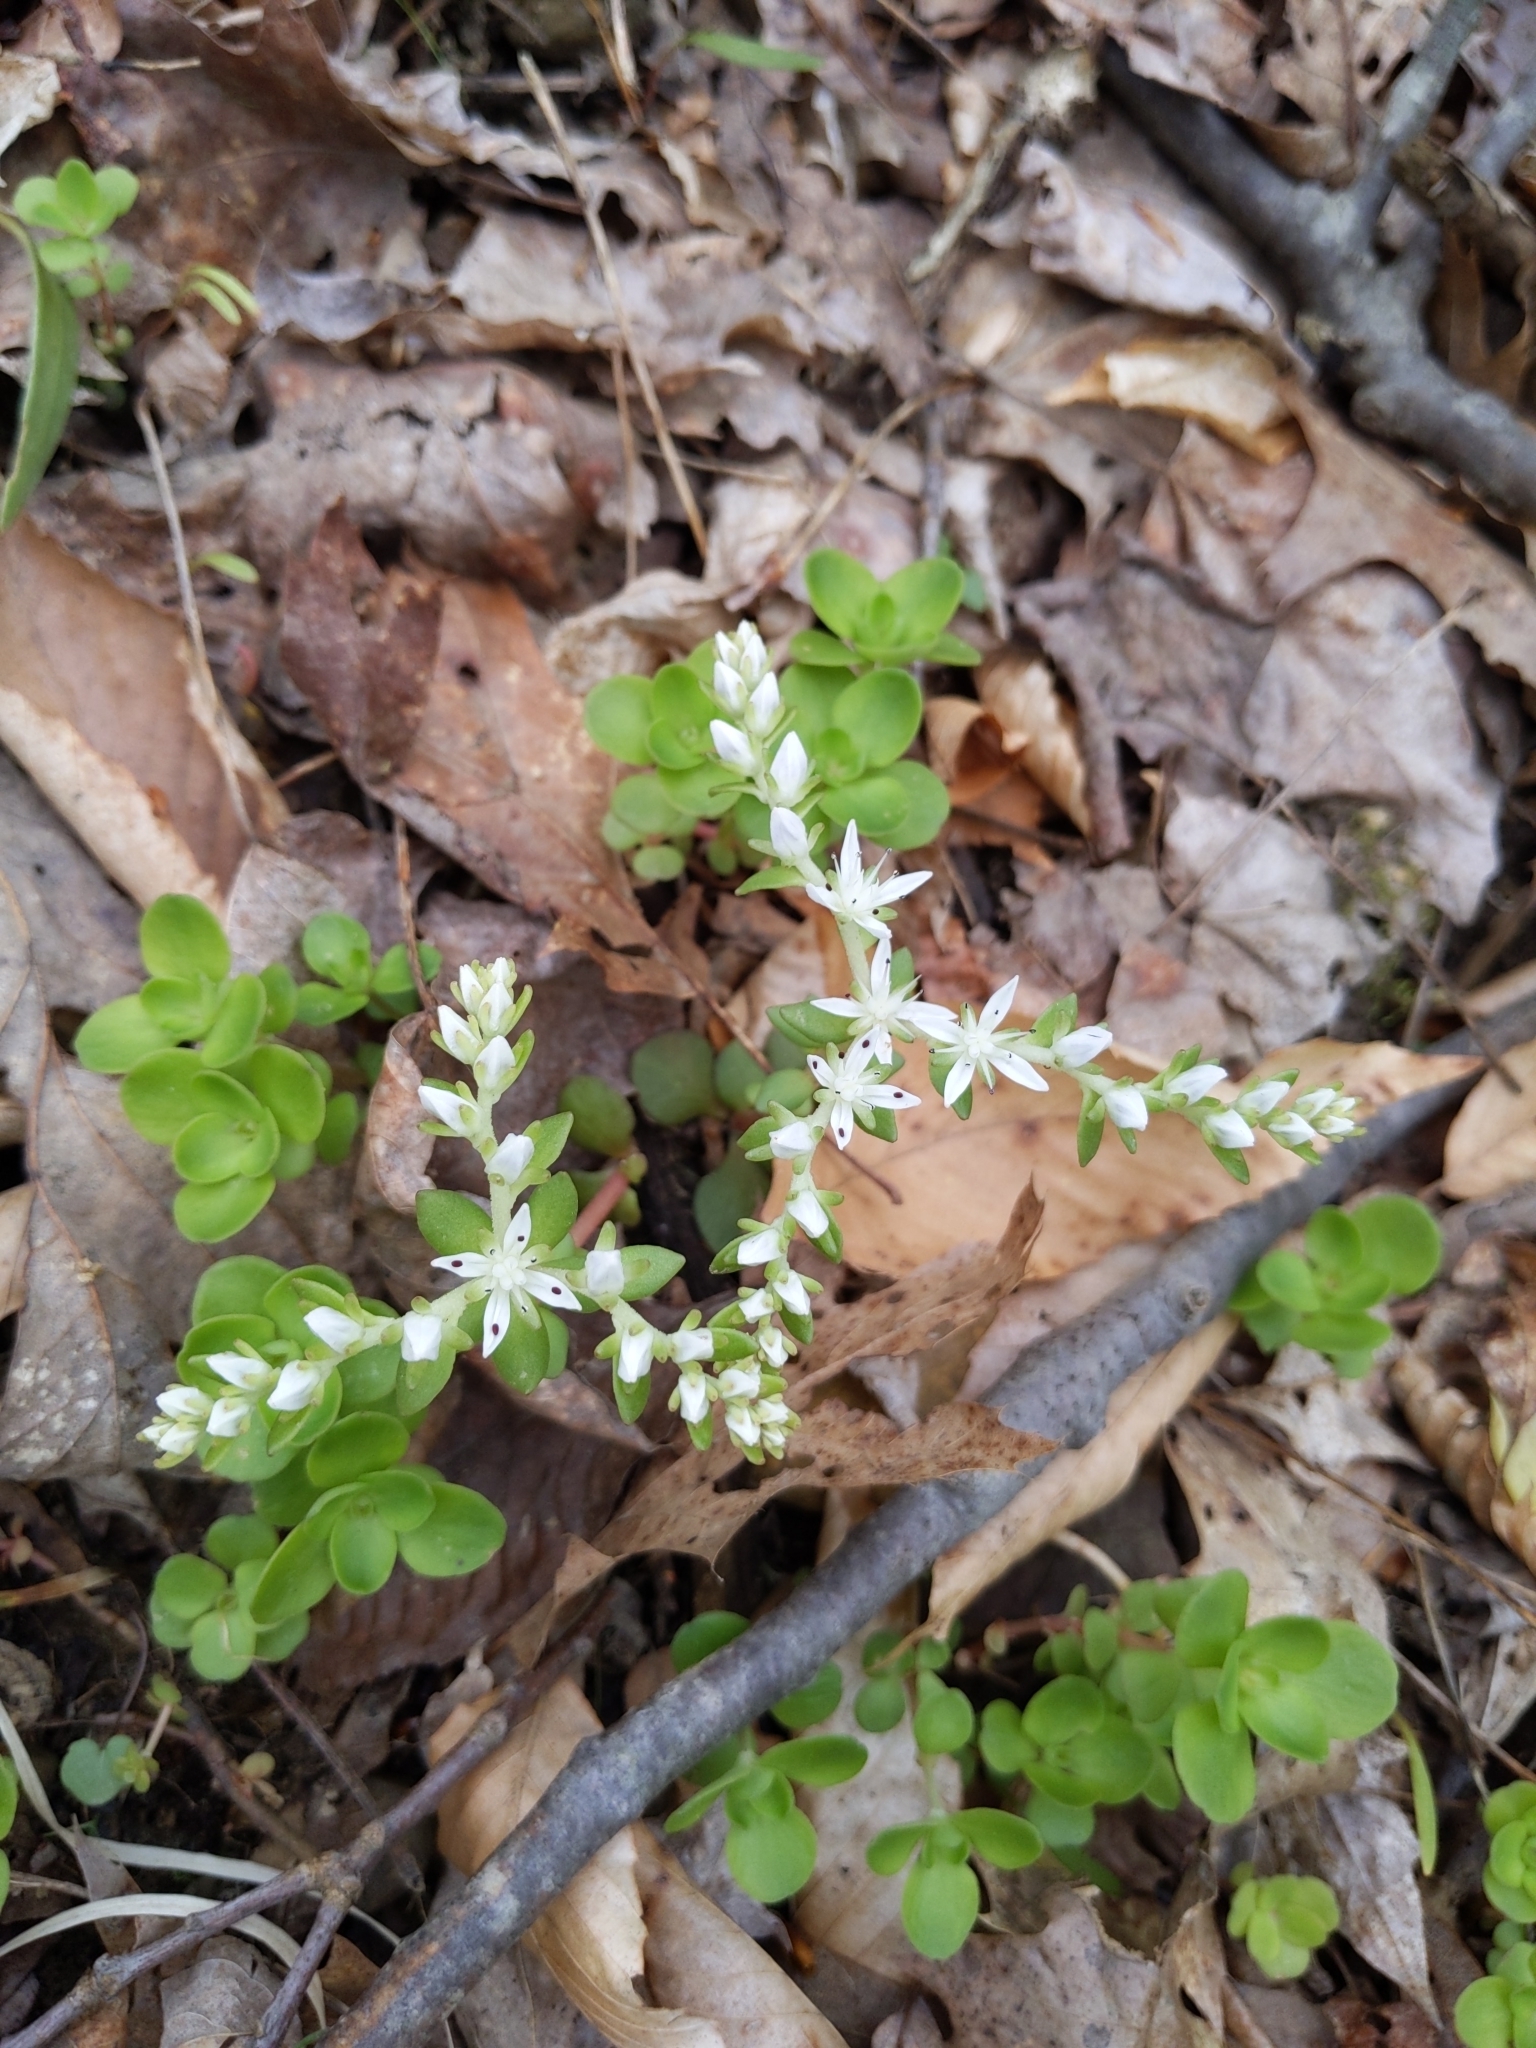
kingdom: Plantae
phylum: Tracheophyta
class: Magnoliopsida
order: Saxifragales
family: Crassulaceae
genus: Sedum
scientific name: Sedum ternatum
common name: Wild stonecrop
